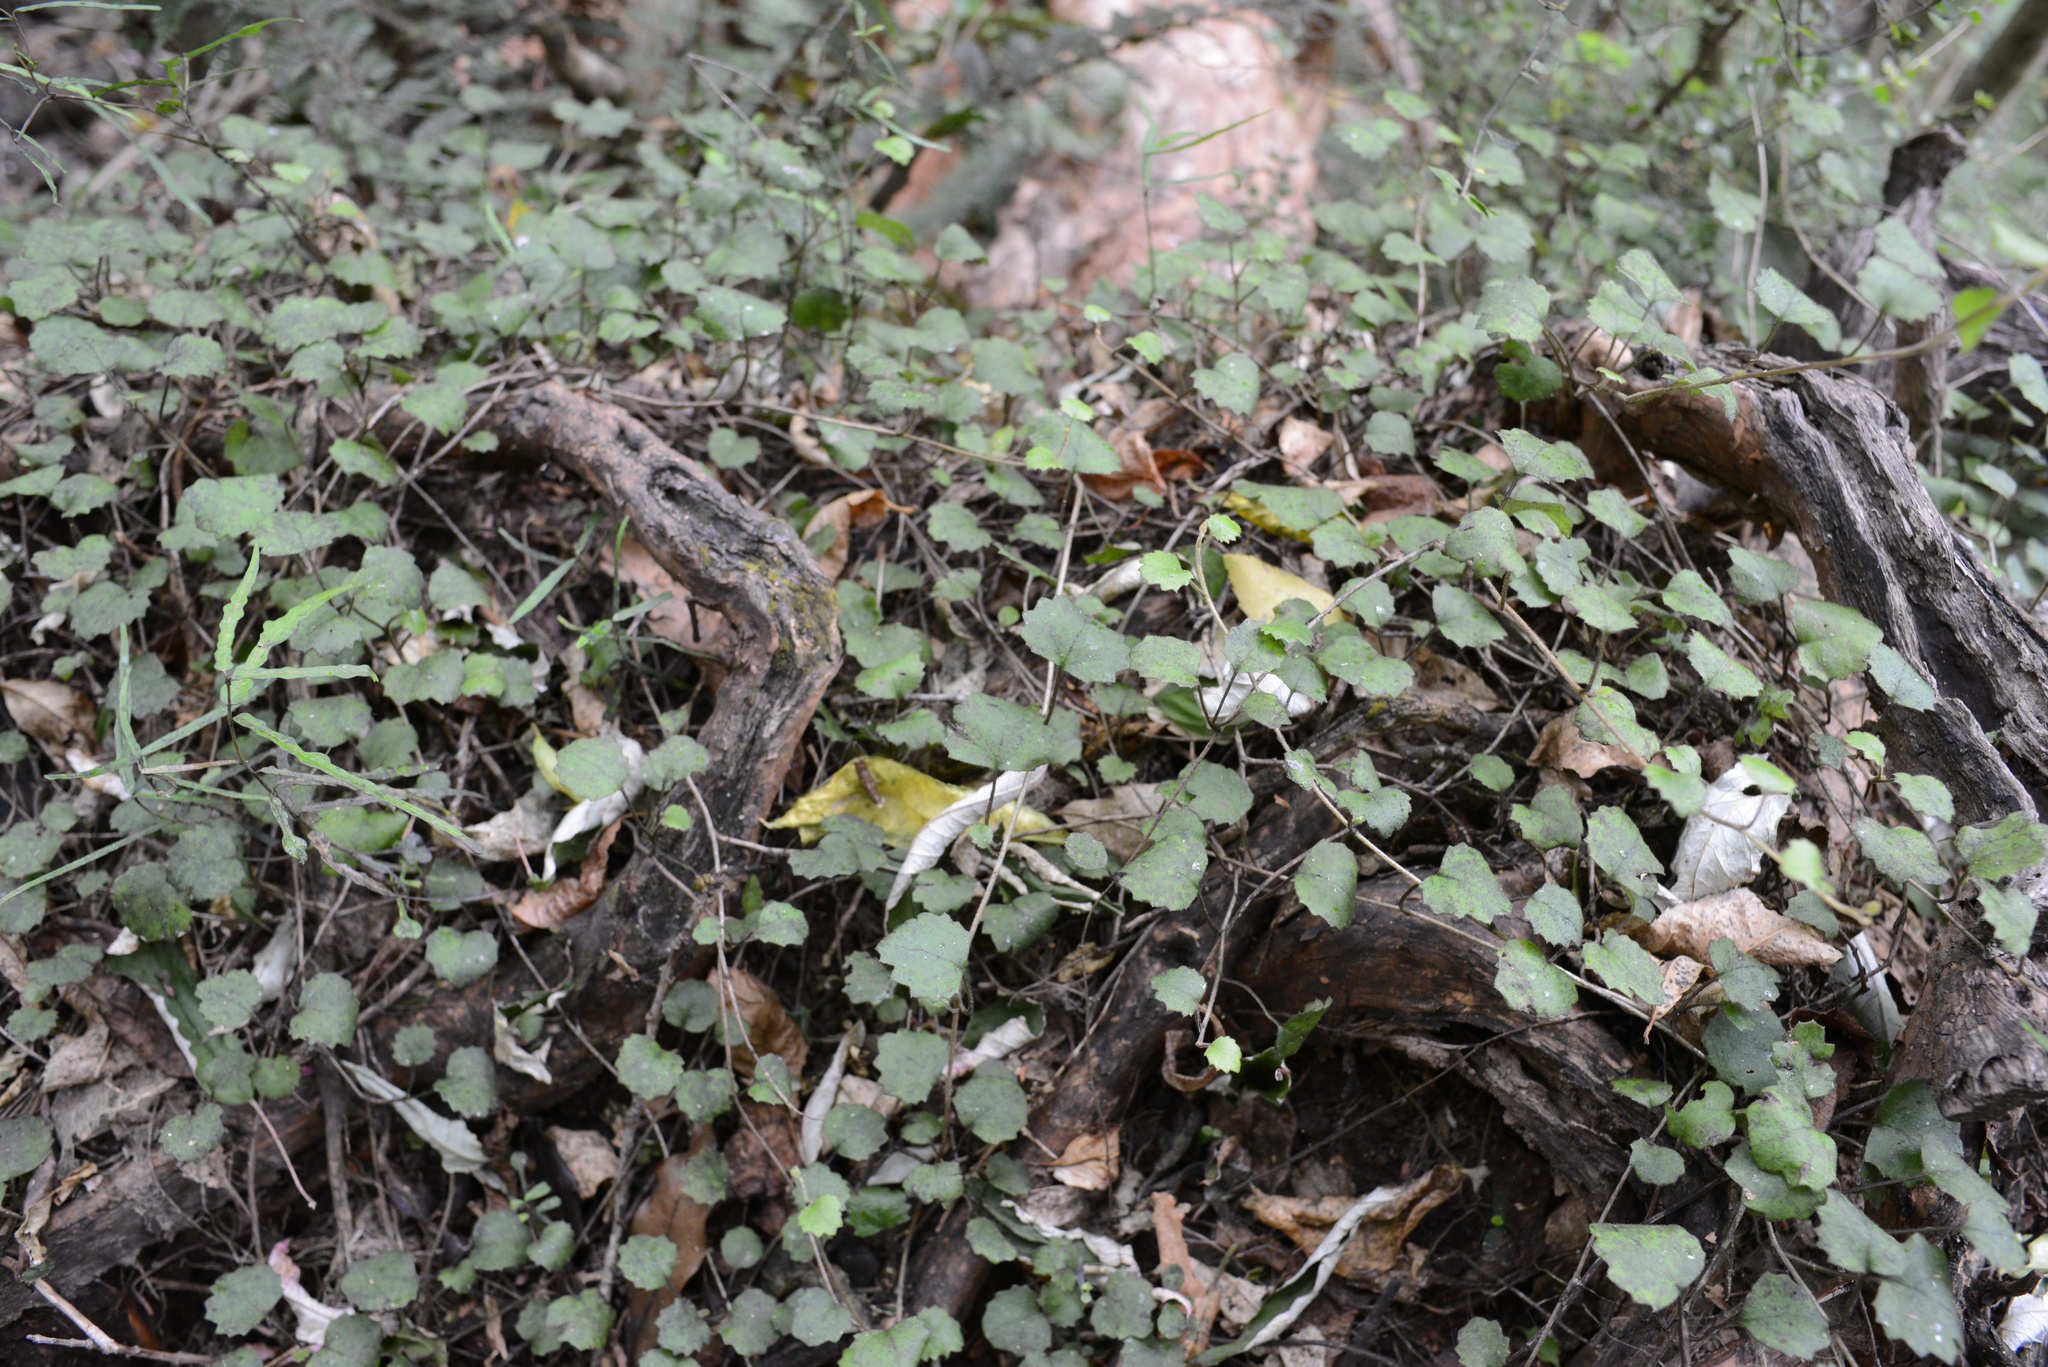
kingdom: Plantae
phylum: Tracheophyta
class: Magnoliopsida
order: Asterales
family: Asteraceae
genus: Brachyglottis
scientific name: Brachyglottis sciadophila
